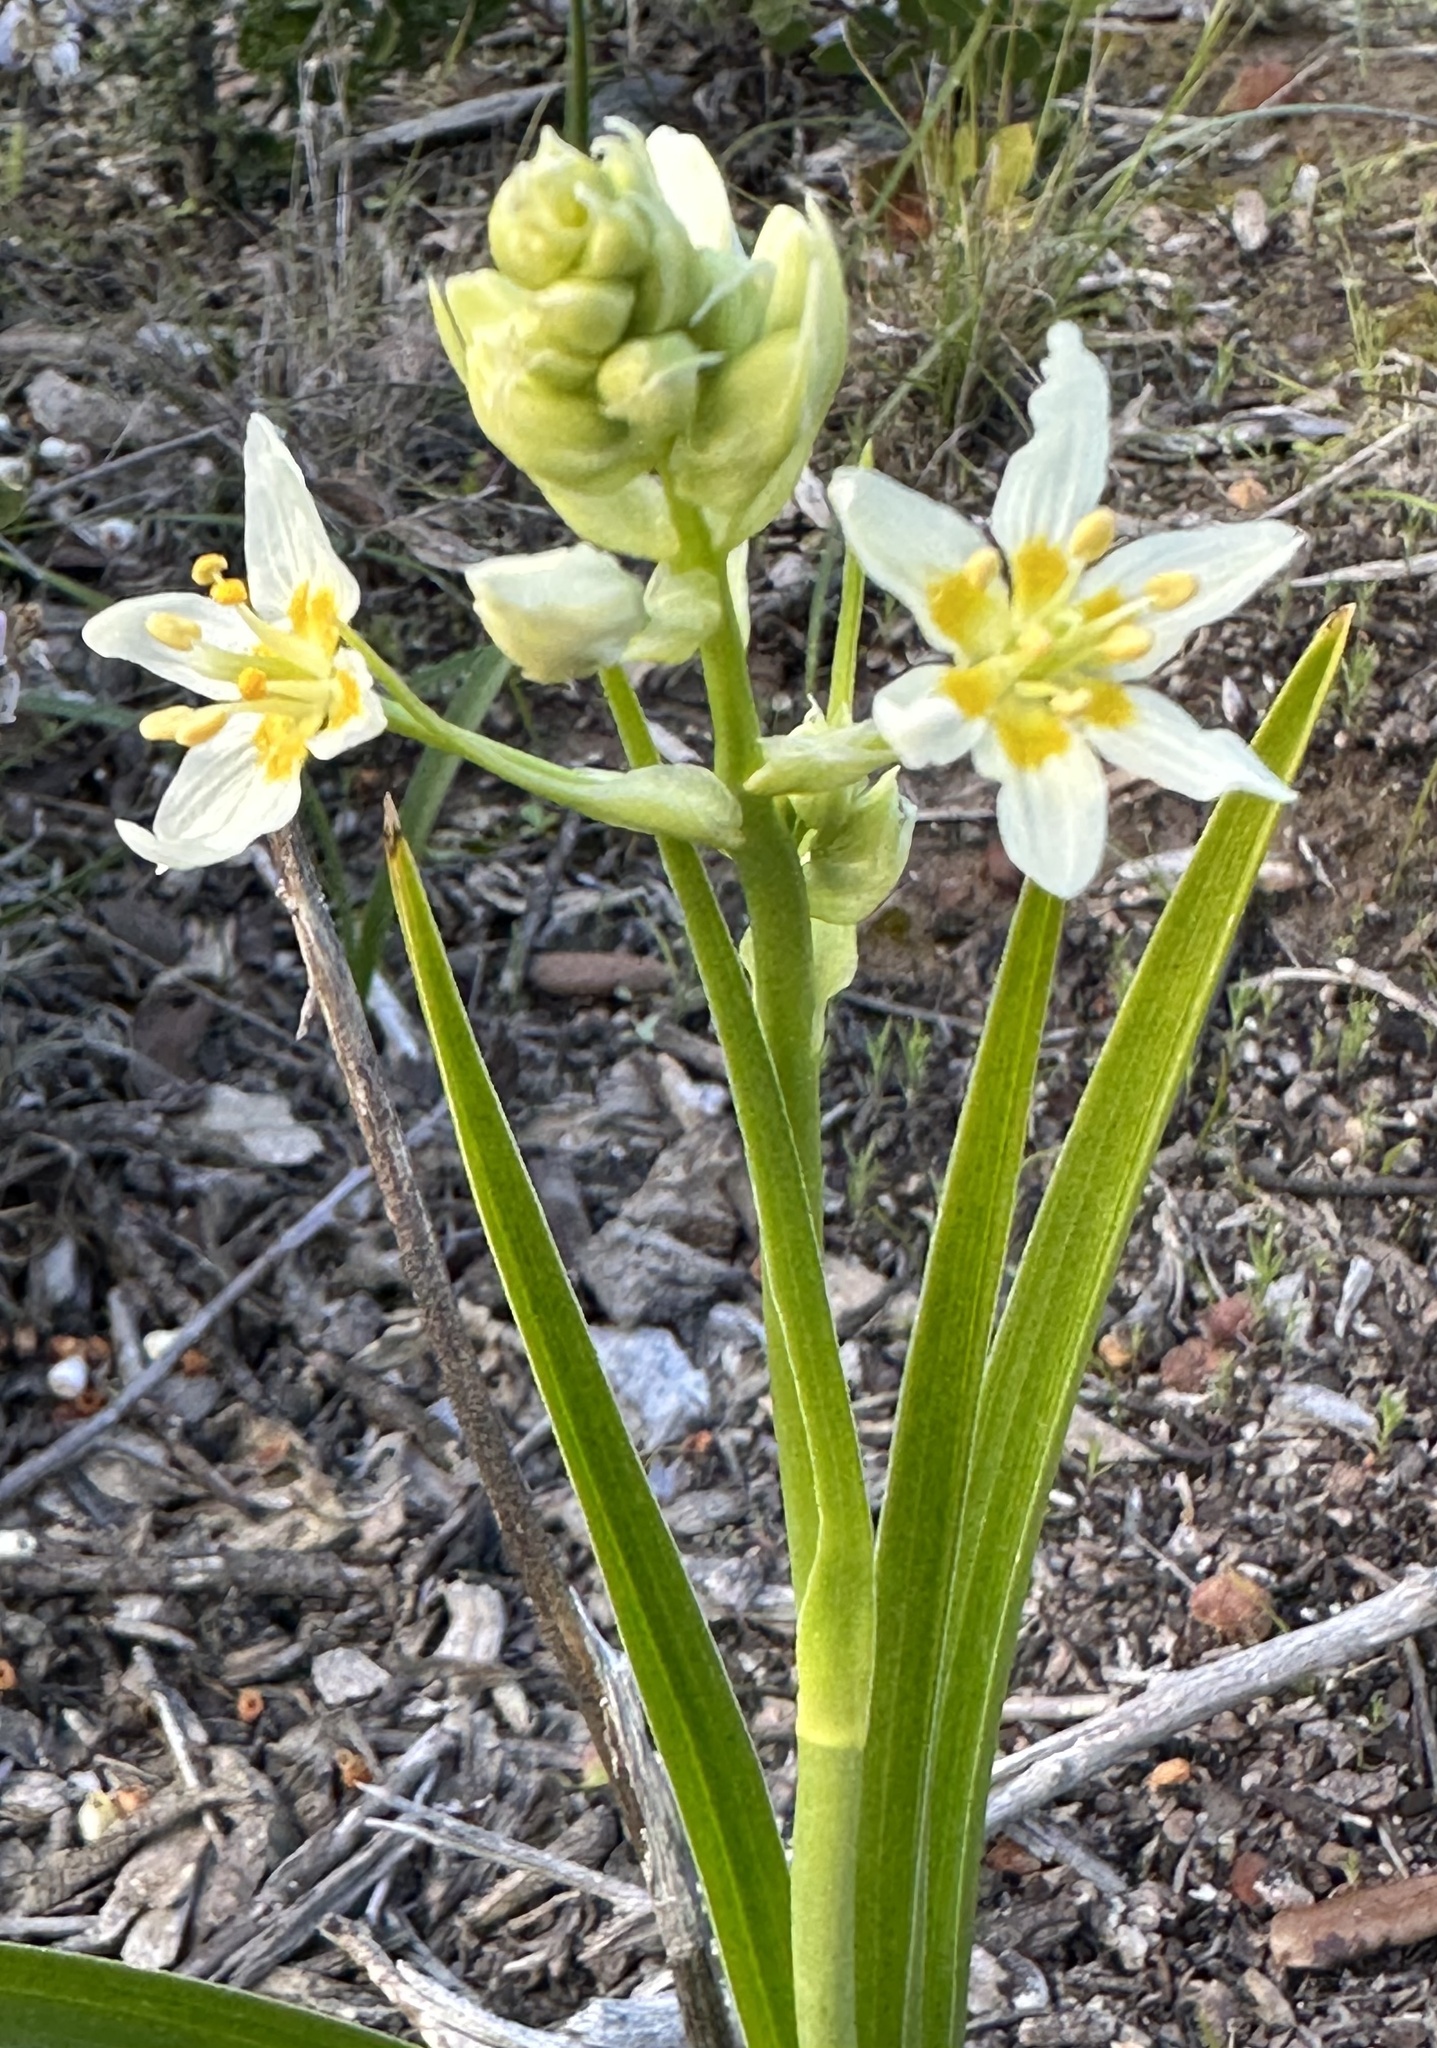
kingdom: Plantae
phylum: Tracheophyta
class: Liliopsida
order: Liliales
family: Melanthiaceae
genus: Toxicoscordion
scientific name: Toxicoscordion fremontii
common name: Fremont's death camas
